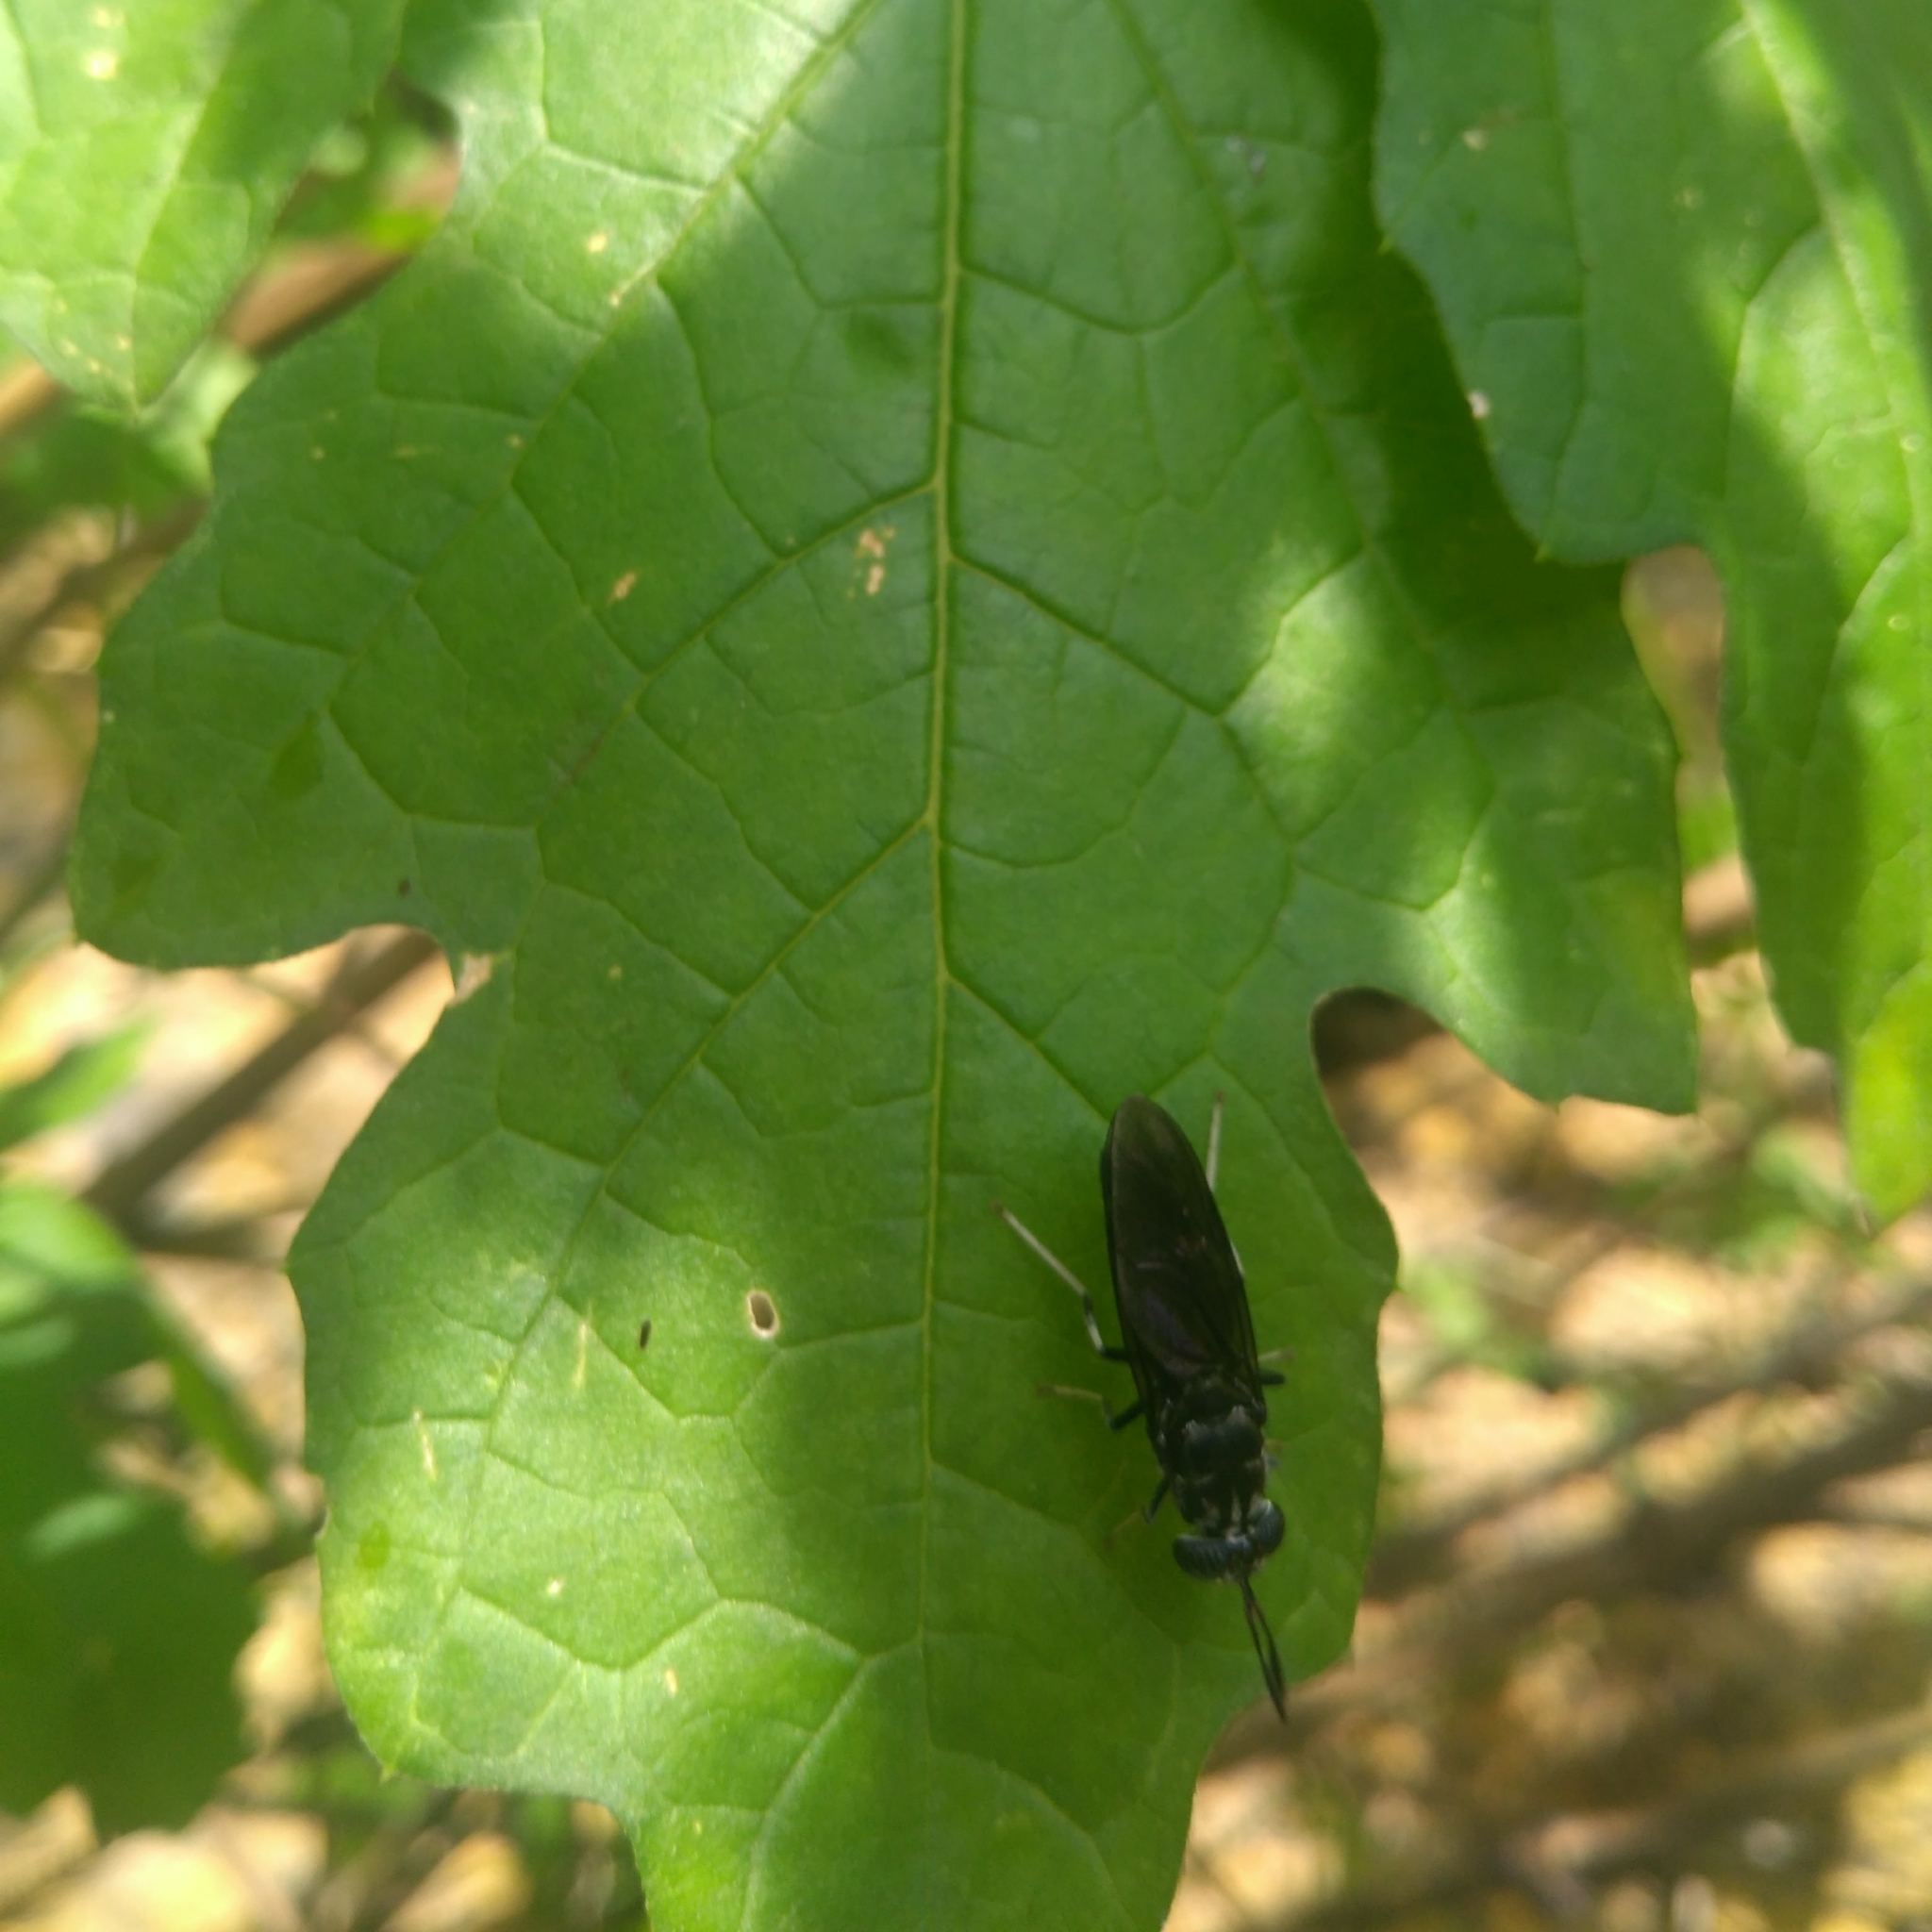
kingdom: Animalia
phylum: Arthropoda
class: Insecta
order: Diptera
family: Stratiomyidae
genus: Hermetia
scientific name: Hermetia illucens
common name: Black soldier fly
